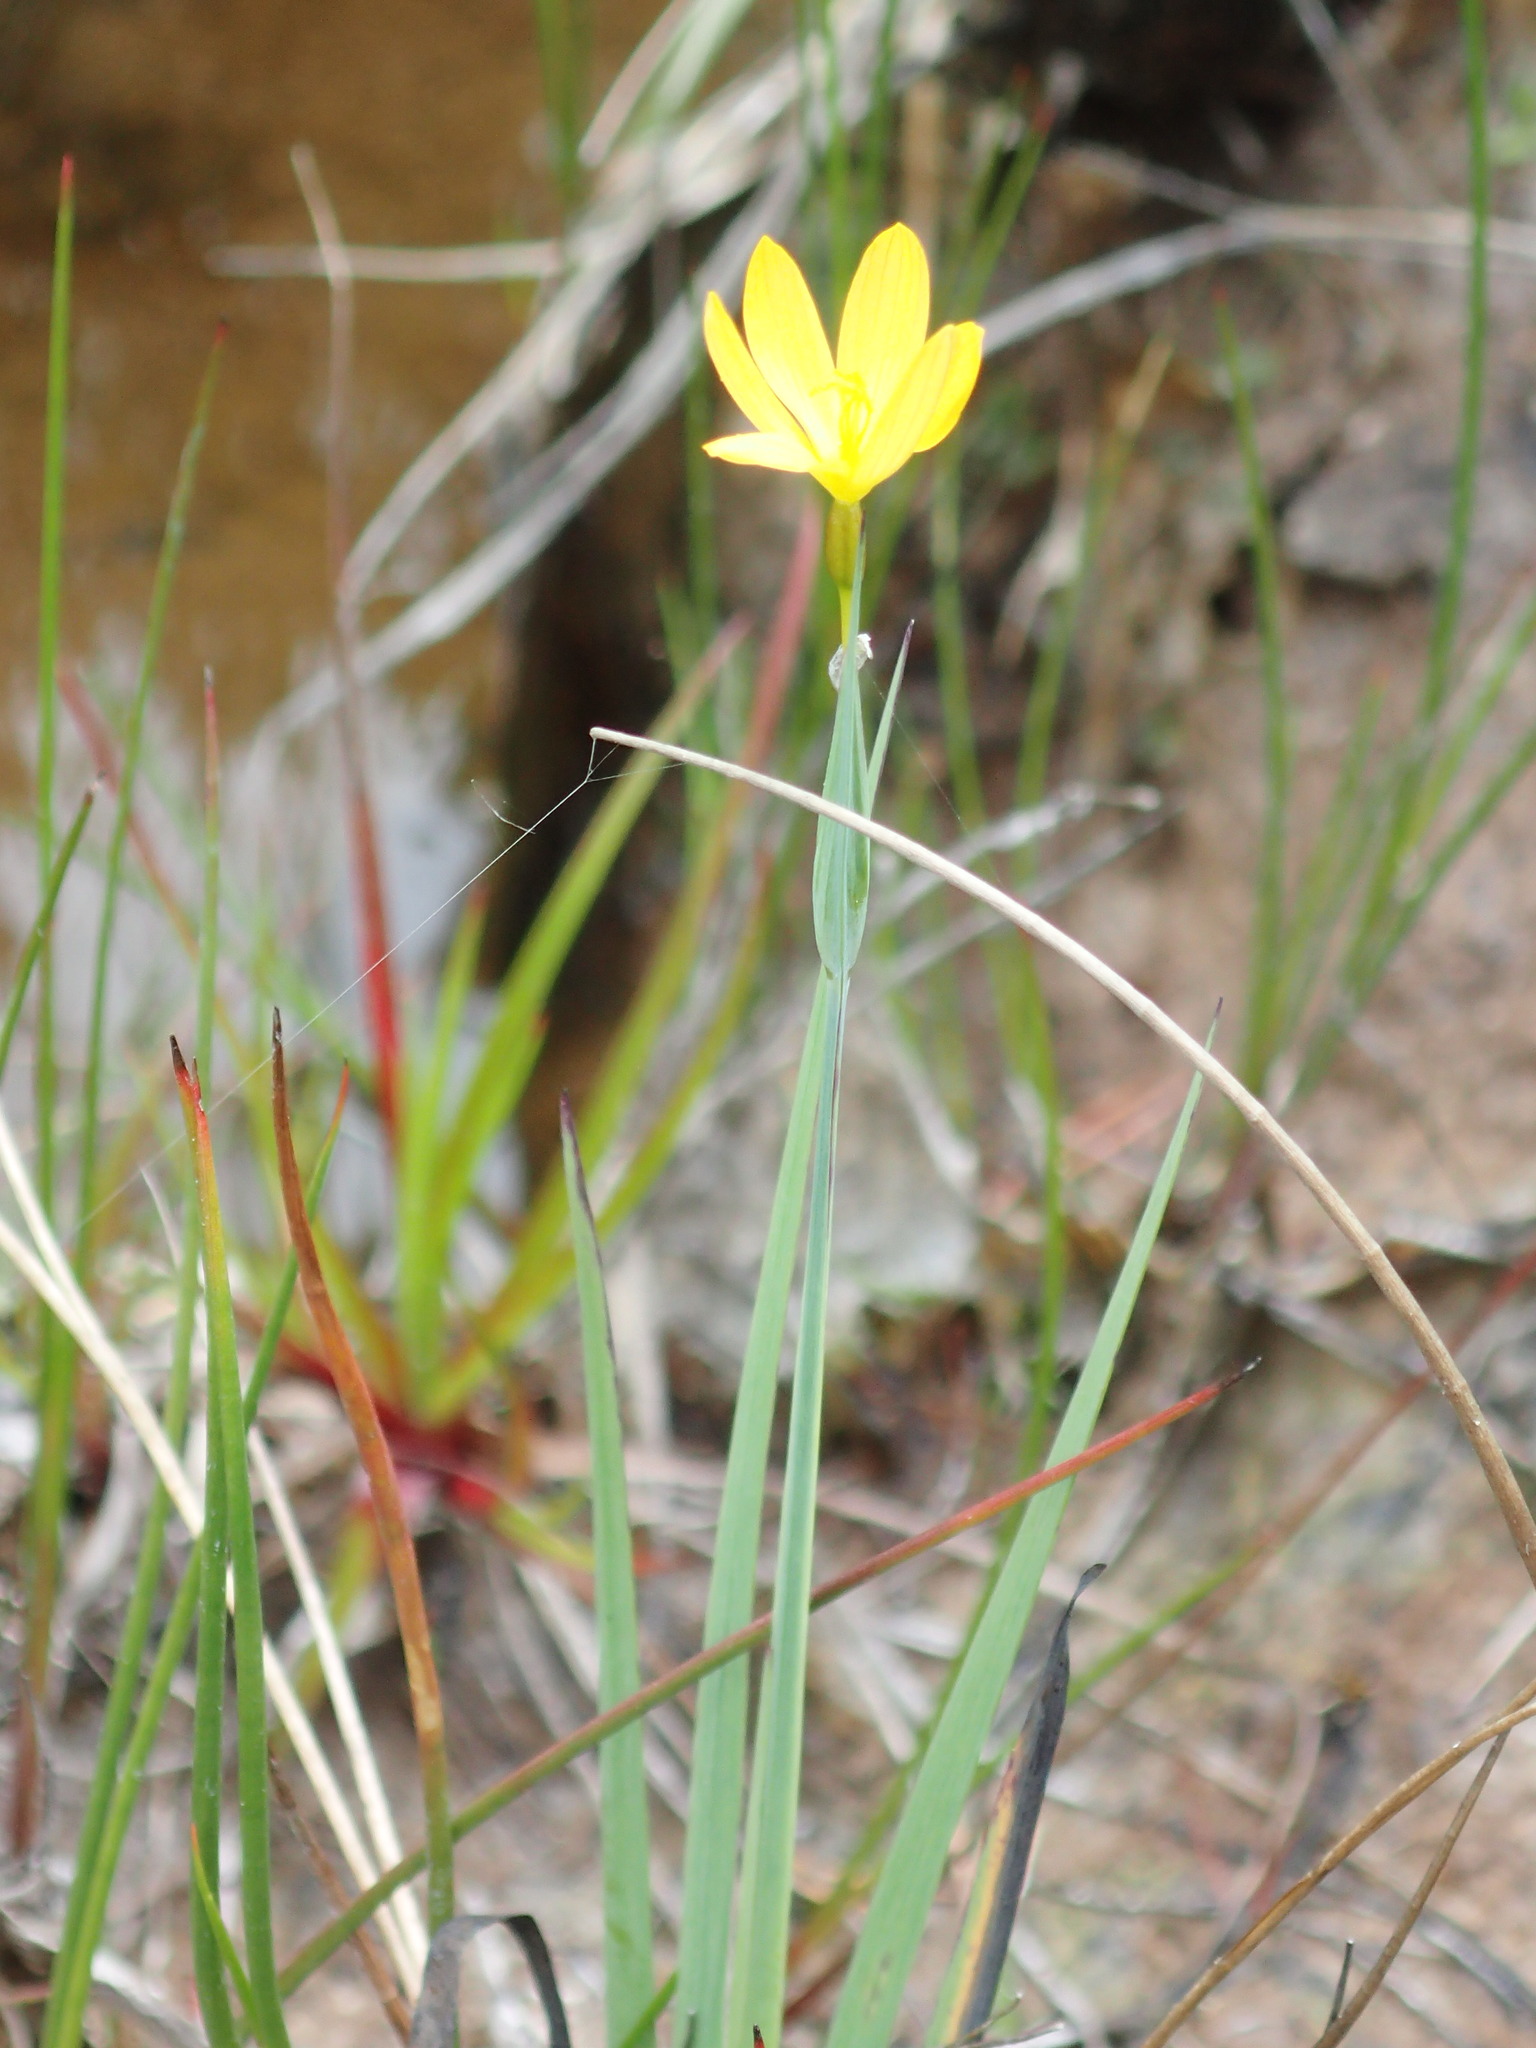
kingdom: Plantae
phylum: Tracheophyta
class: Liliopsida
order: Asparagales
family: Iridaceae
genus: Sisyrinchium
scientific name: Sisyrinchium californicum
